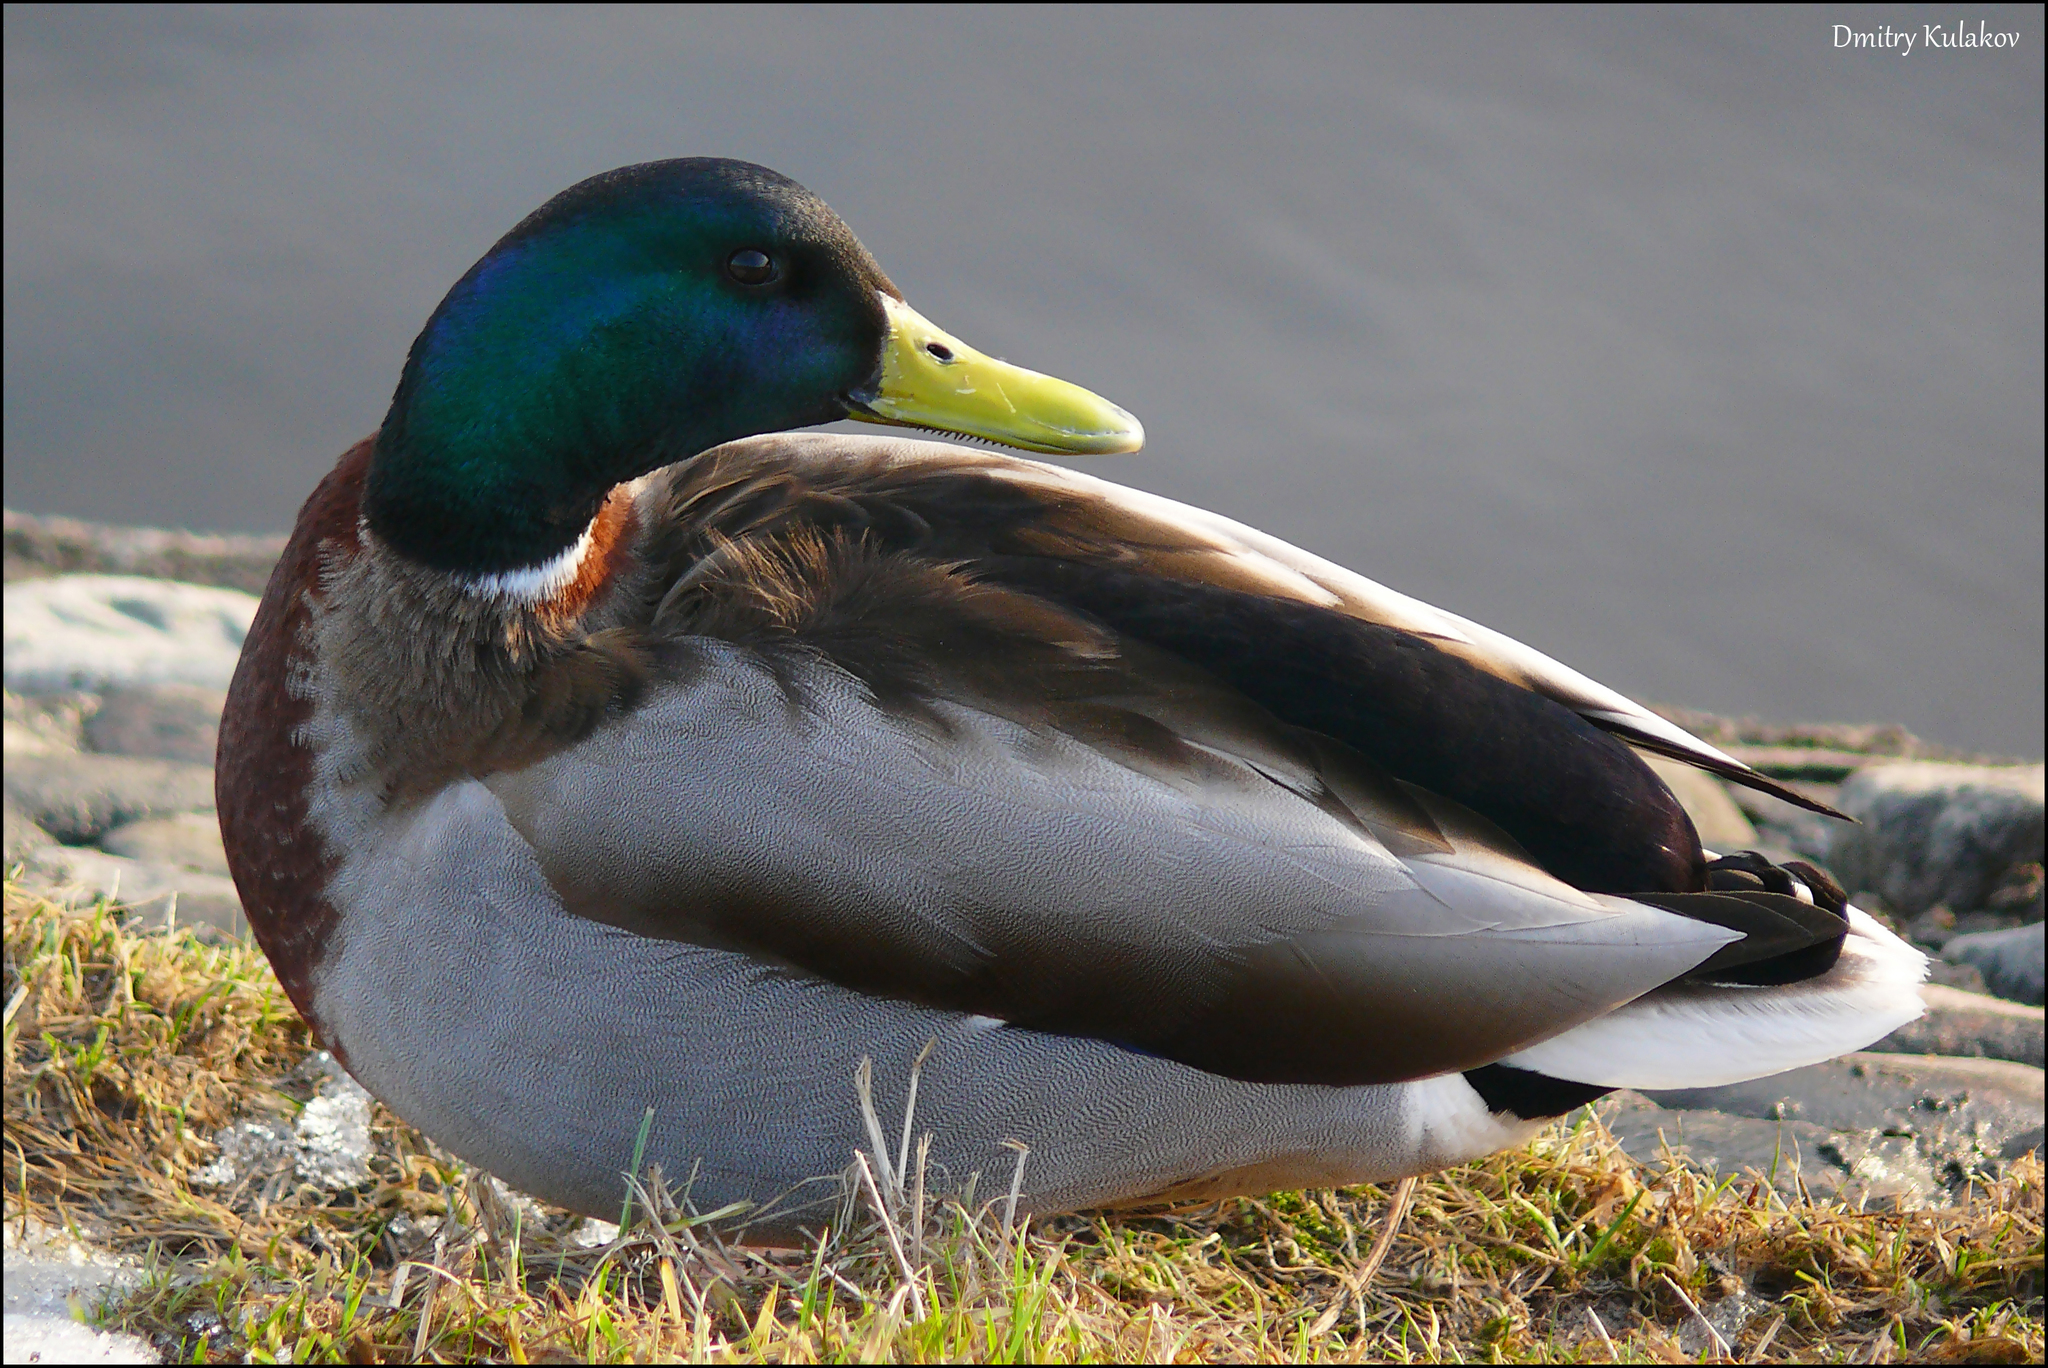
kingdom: Animalia
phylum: Chordata
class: Aves
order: Anseriformes
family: Anatidae
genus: Anas
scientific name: Anas platyrhynchos
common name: Mallard
